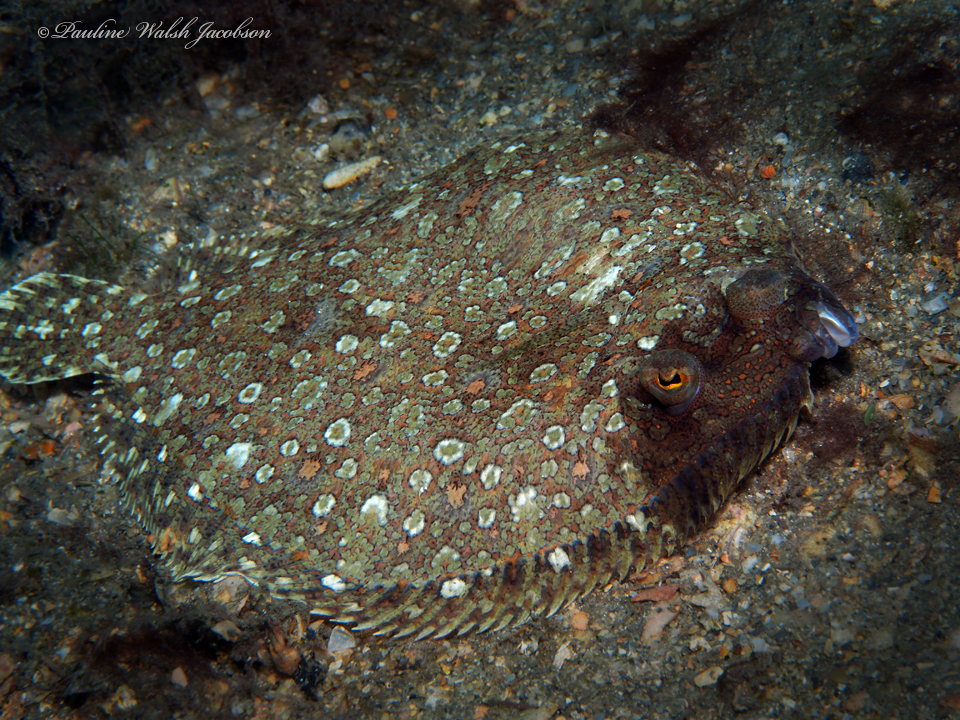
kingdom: Animalia
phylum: Chordata
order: Pleuronectiformes
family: Bothidae
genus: Bothus
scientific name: Bothus maculiferus
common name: Mottled flounder
